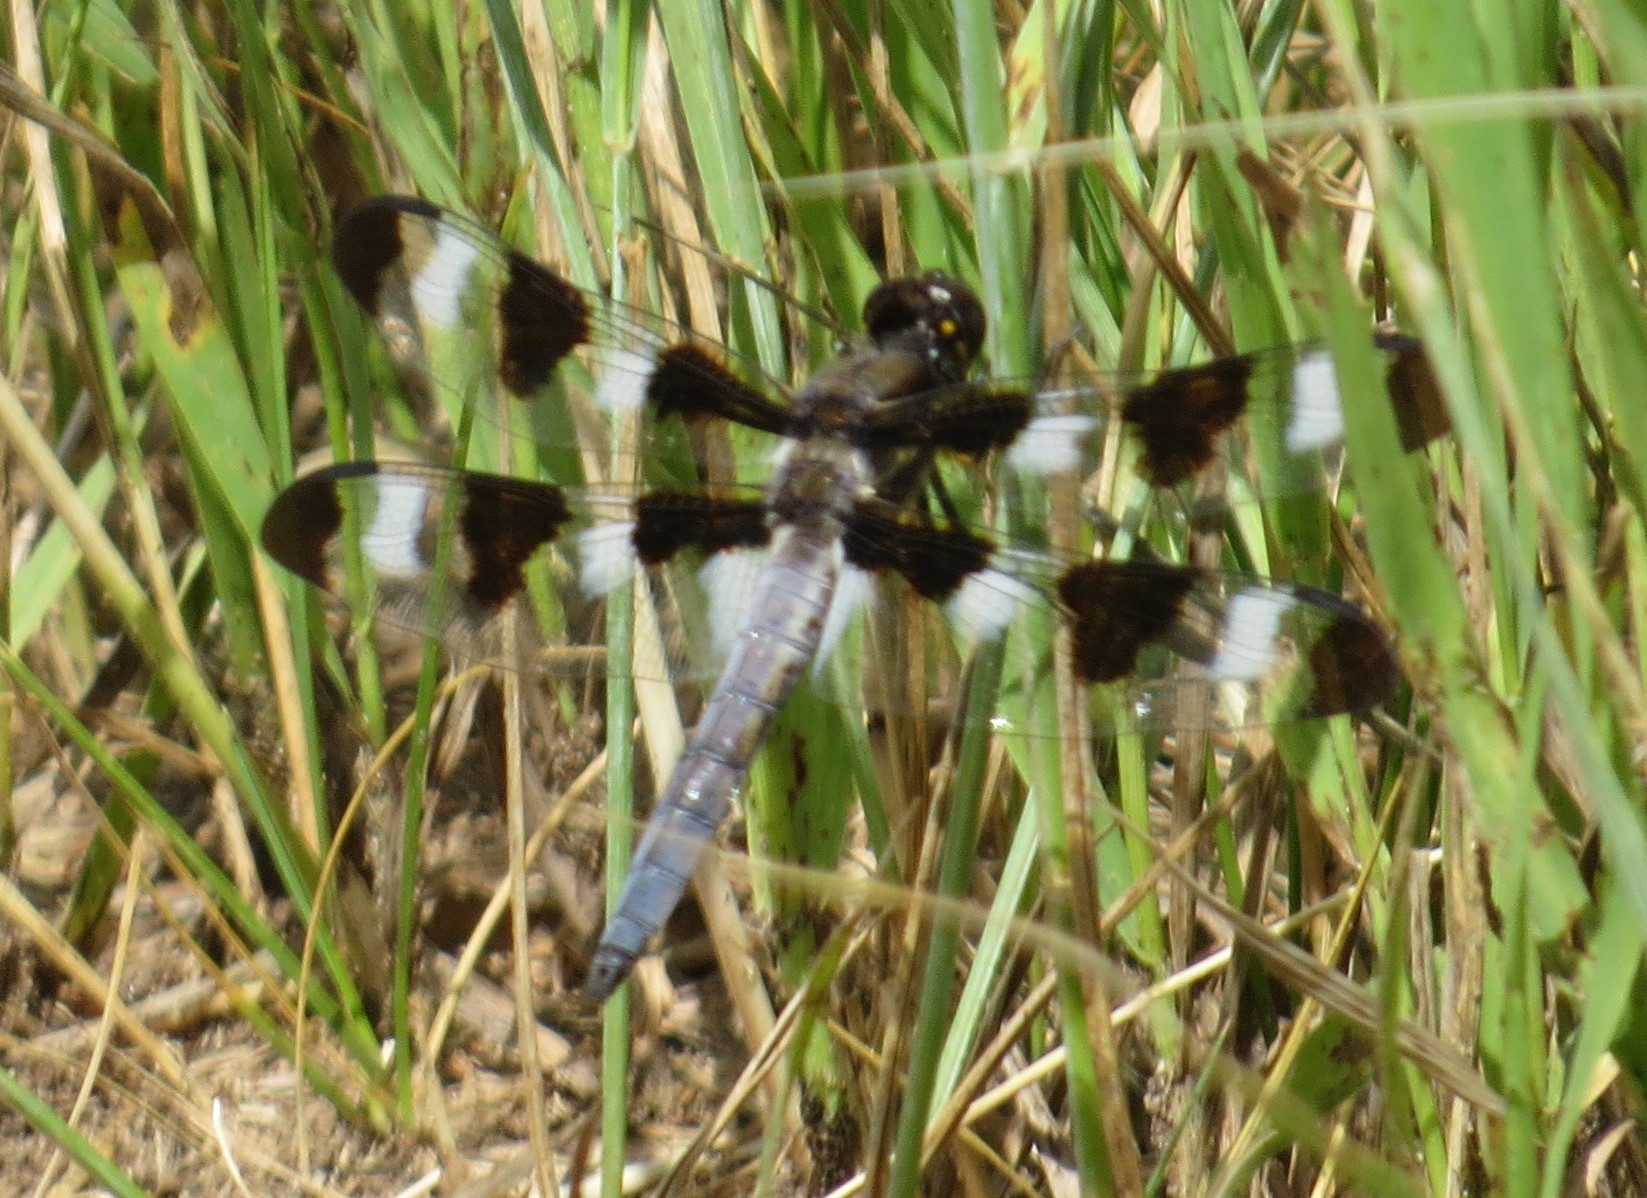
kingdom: Animalia
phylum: Arthropoda
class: Insecta
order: Odonata
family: Libellulidae
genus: Libellula
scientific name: Libellula pulchella
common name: Twelve-spotted skimmer
